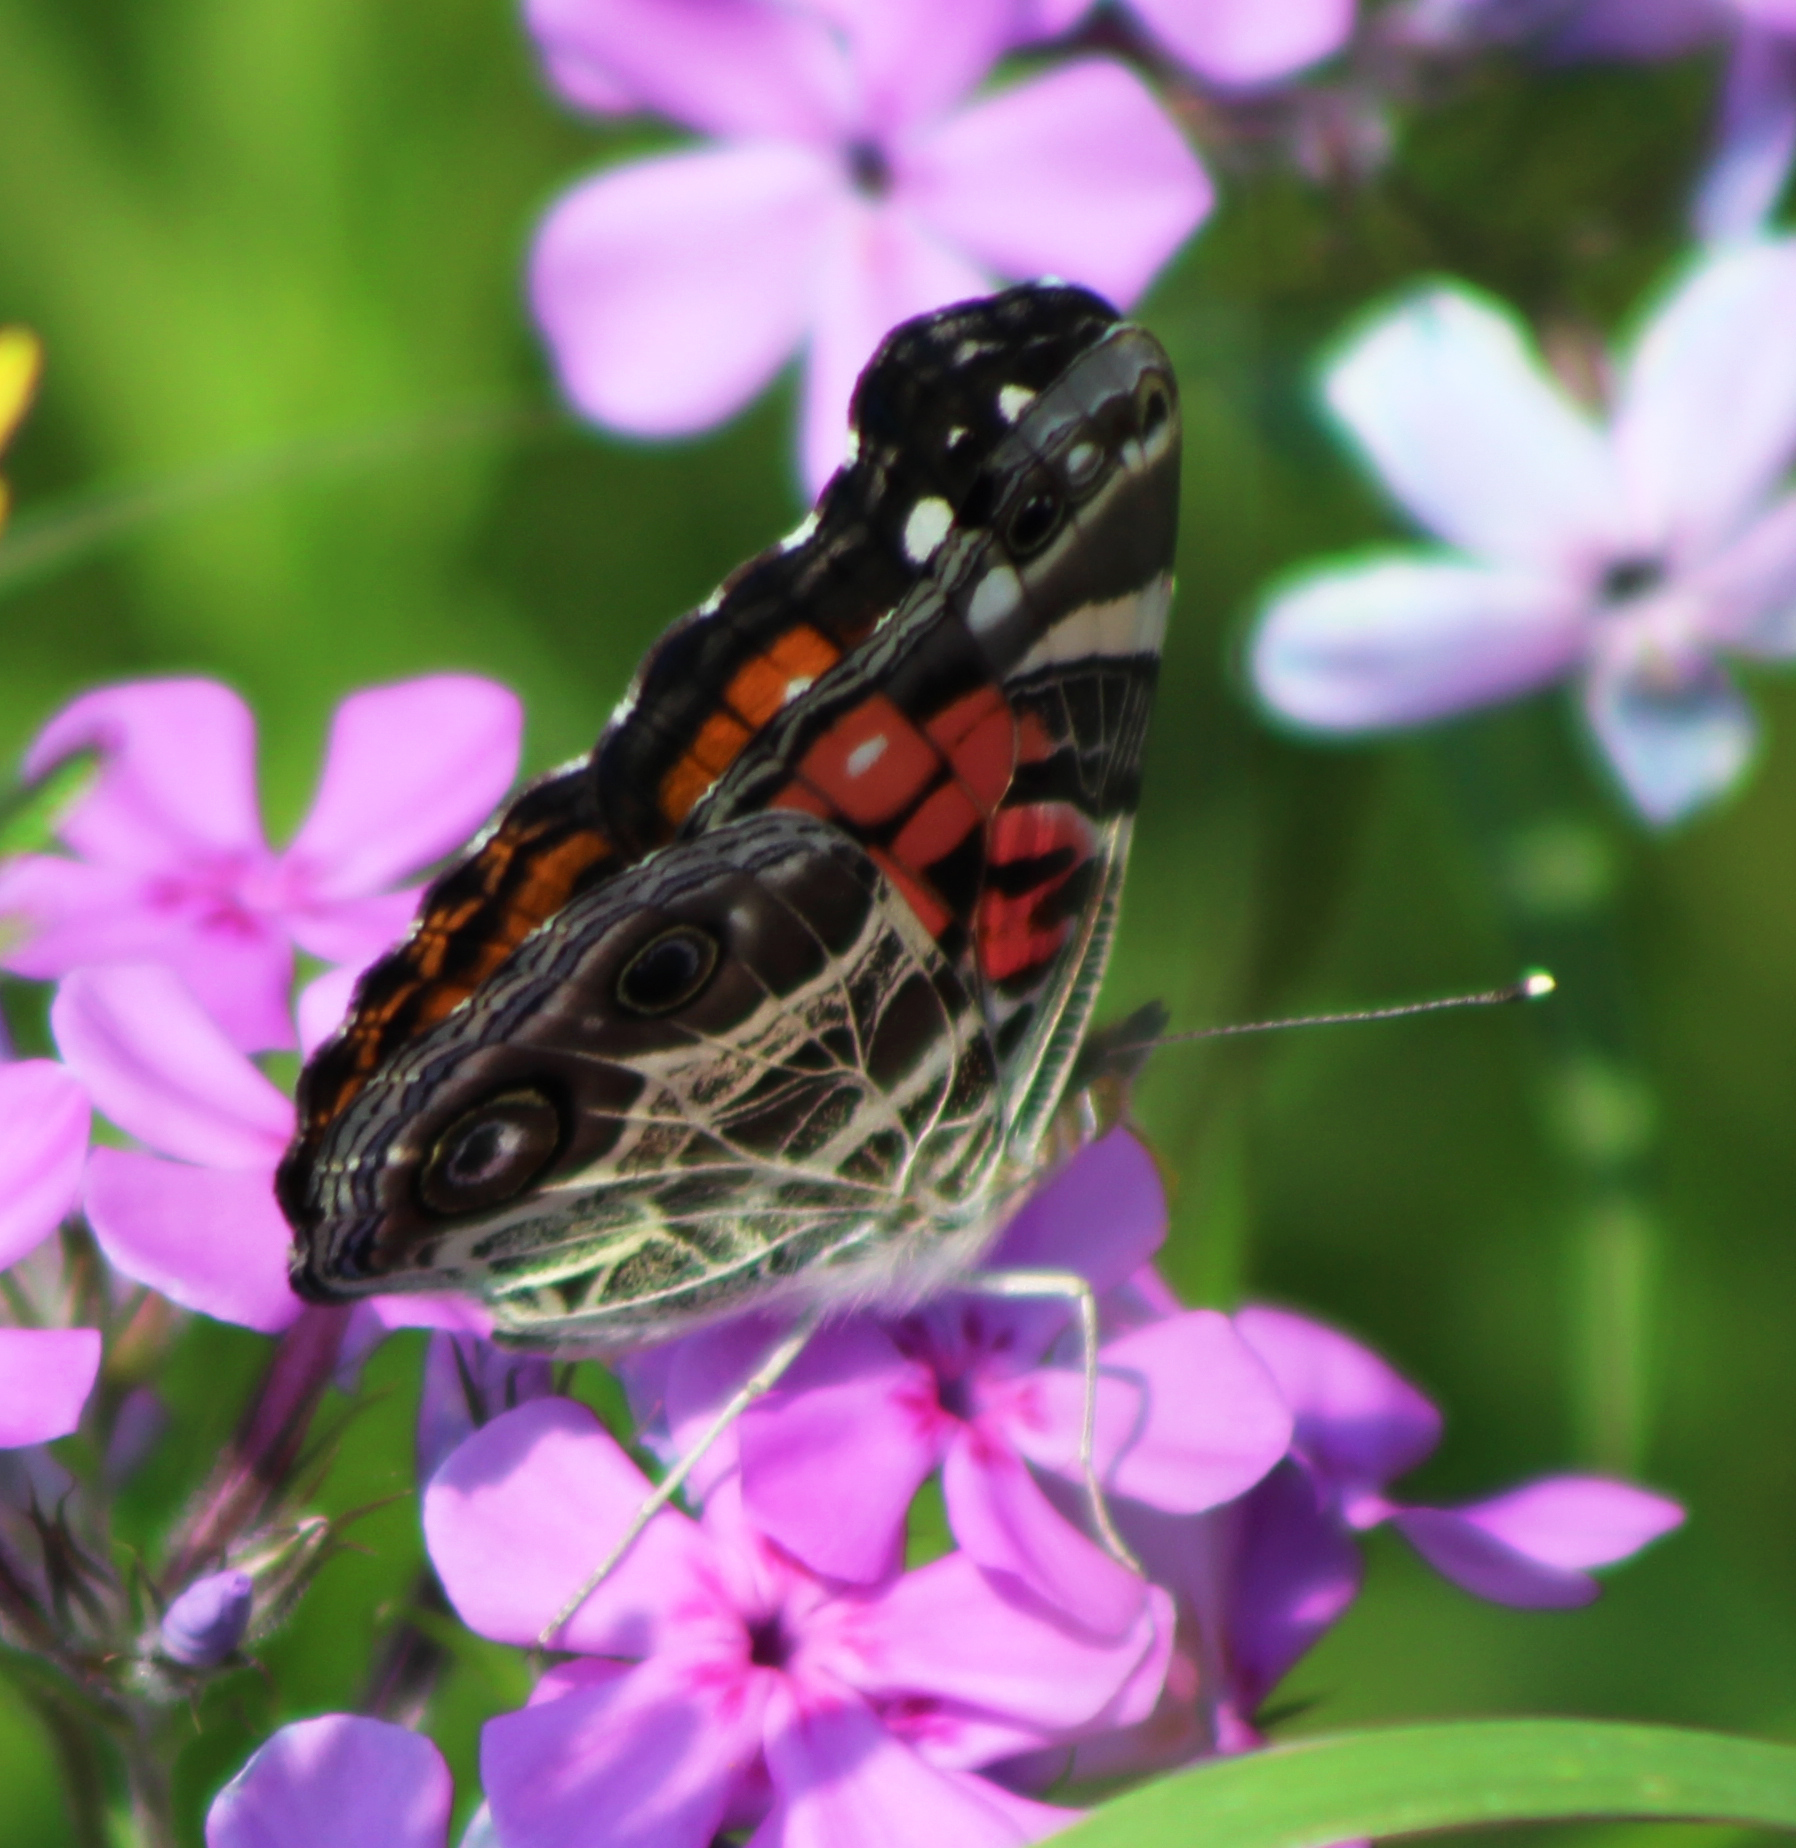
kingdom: Animalia
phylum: Arthropoda
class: Insecta
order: Lepidoptera
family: Nymphalidae
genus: Vanessa
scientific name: Vanessa virginiensis
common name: American lady
